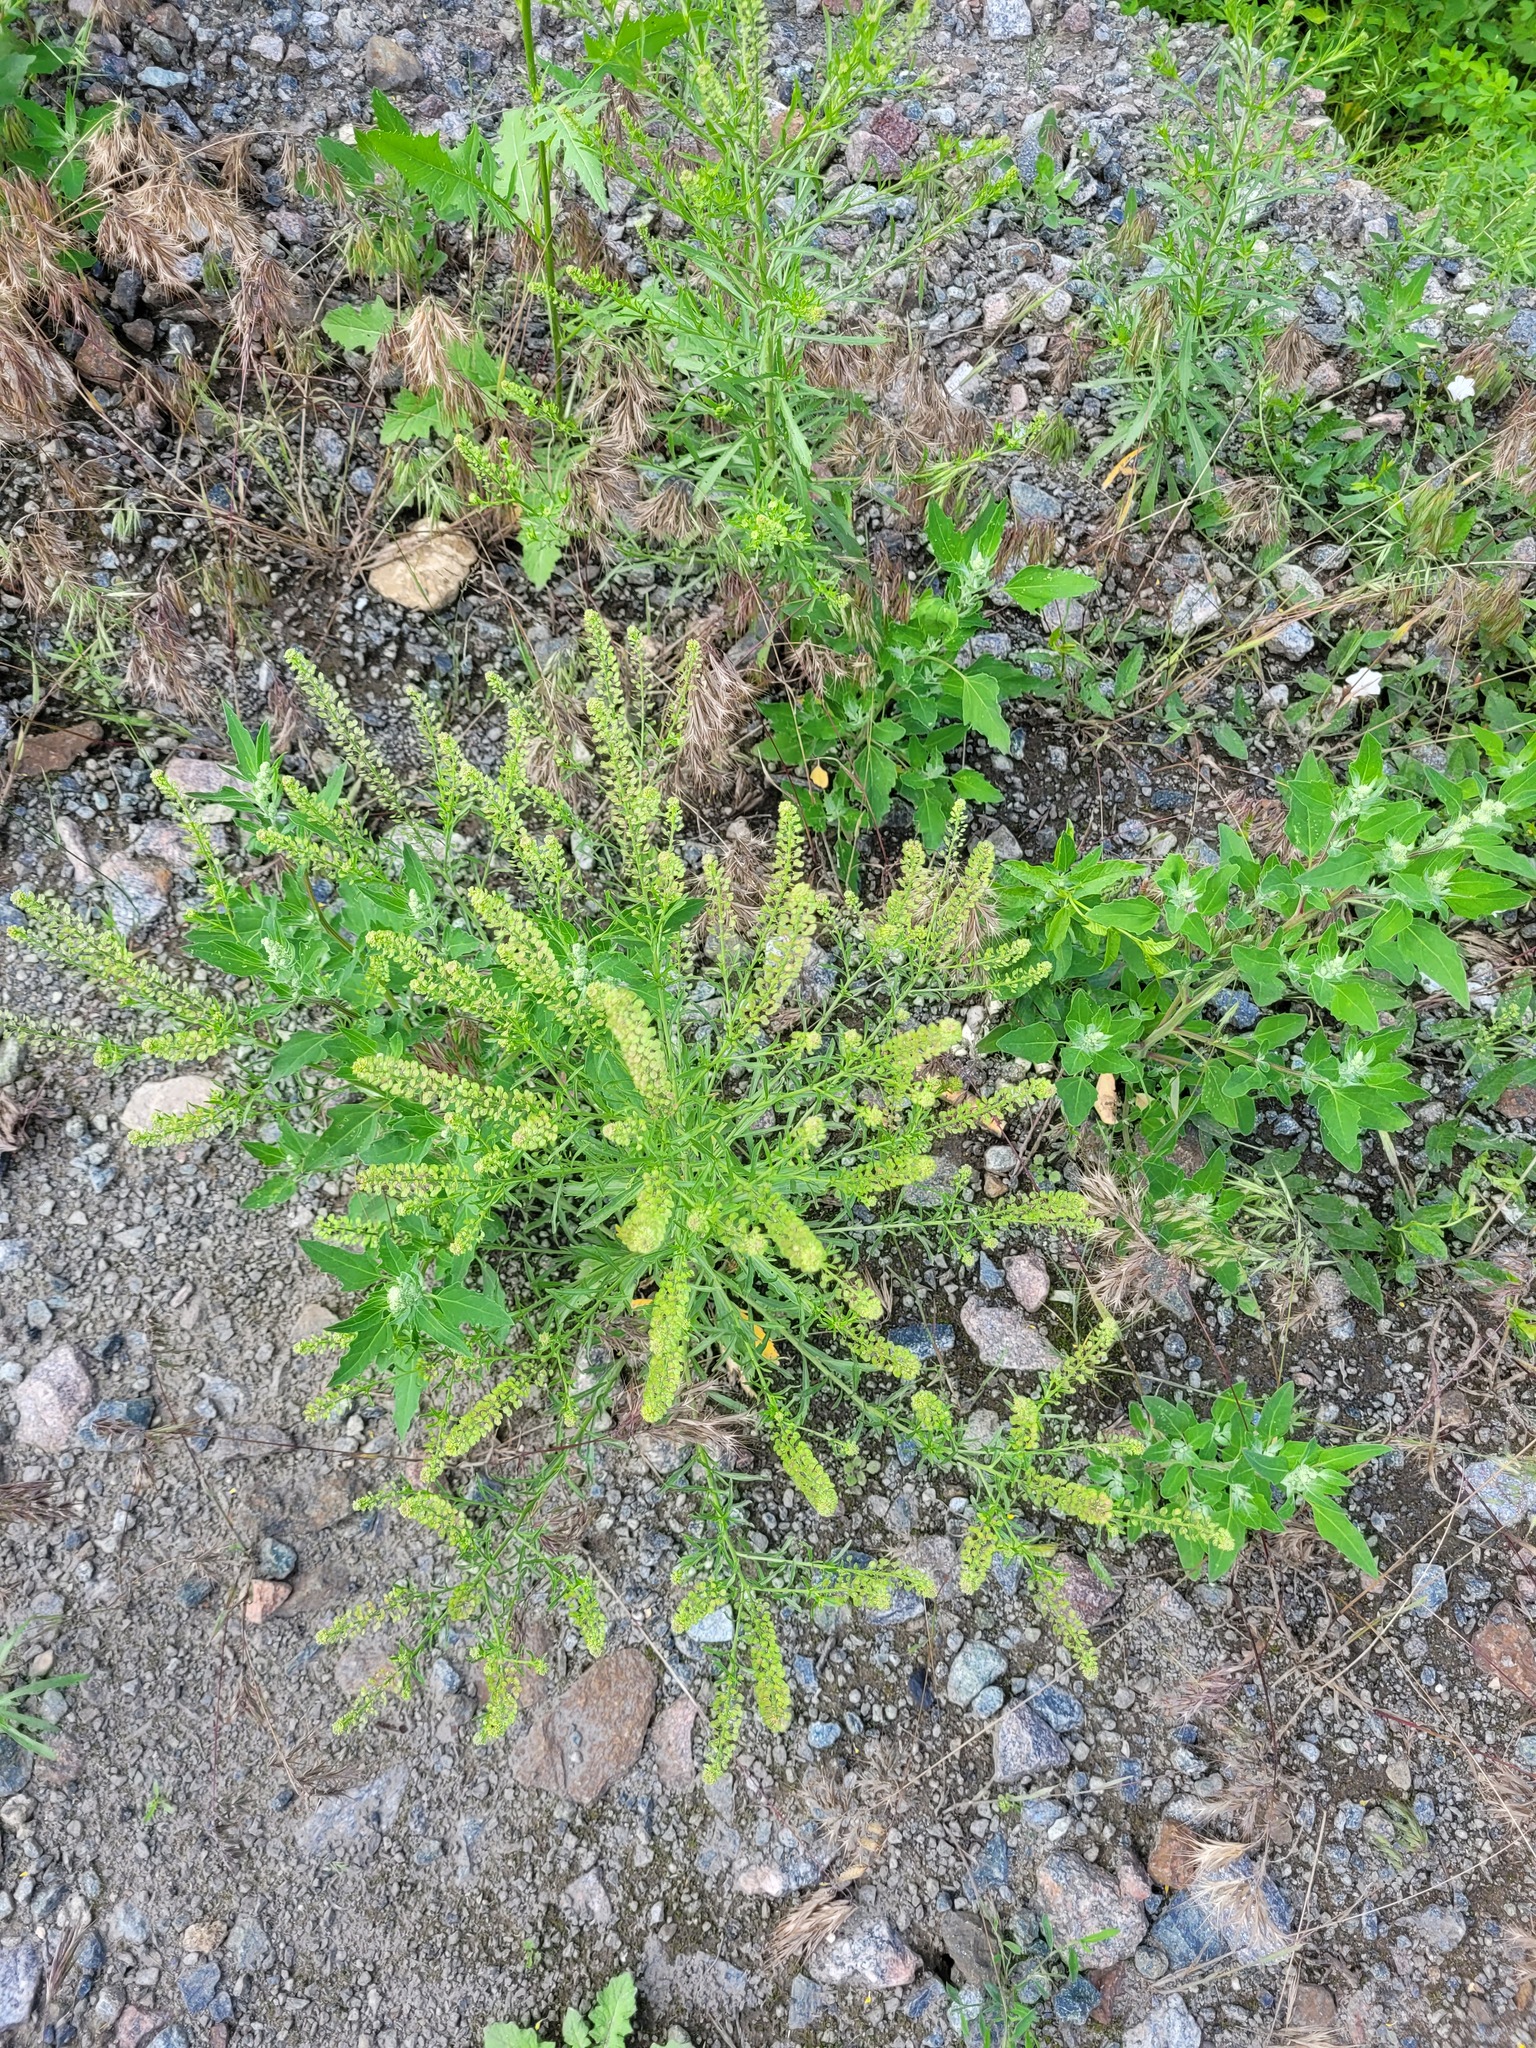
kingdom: Plantae
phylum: Tracheophyta
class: Magnoliopsida
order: Brassicales
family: Brassicaceae
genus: Lepidium
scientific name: Lepidium densiflorum
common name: Miner's pepperwort
